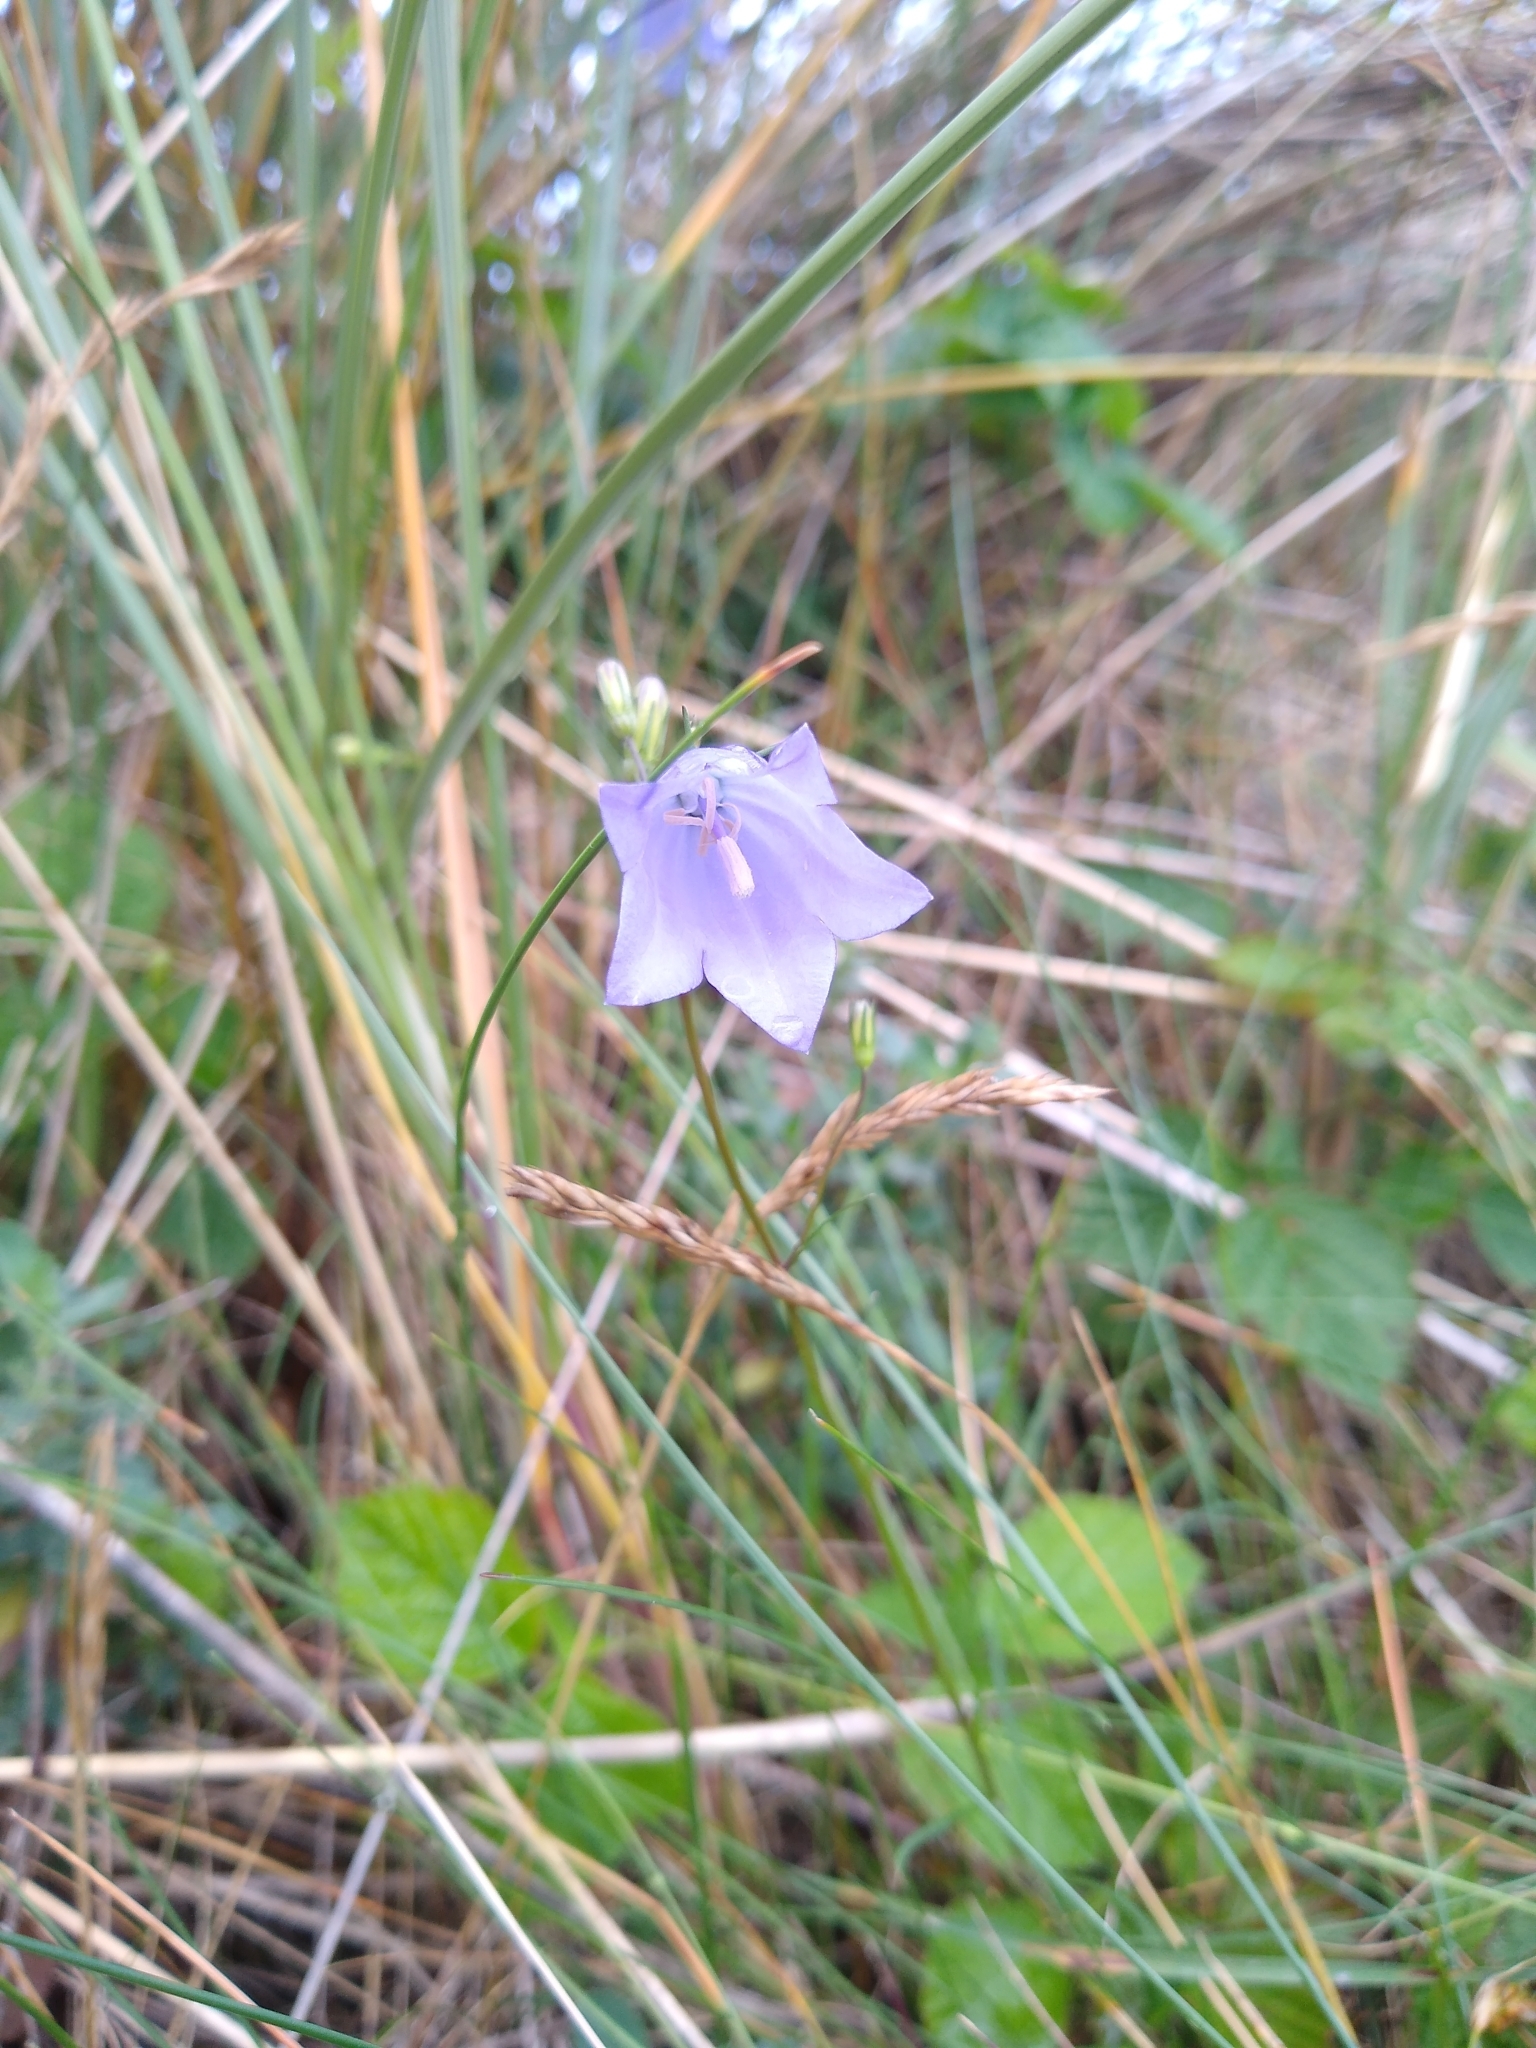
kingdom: Plantae
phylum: Tracheophyta
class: Magnoliopsida
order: Asterales
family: Campanulaceae
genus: Campanula
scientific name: Campanula rotundifolia
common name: Harebell
